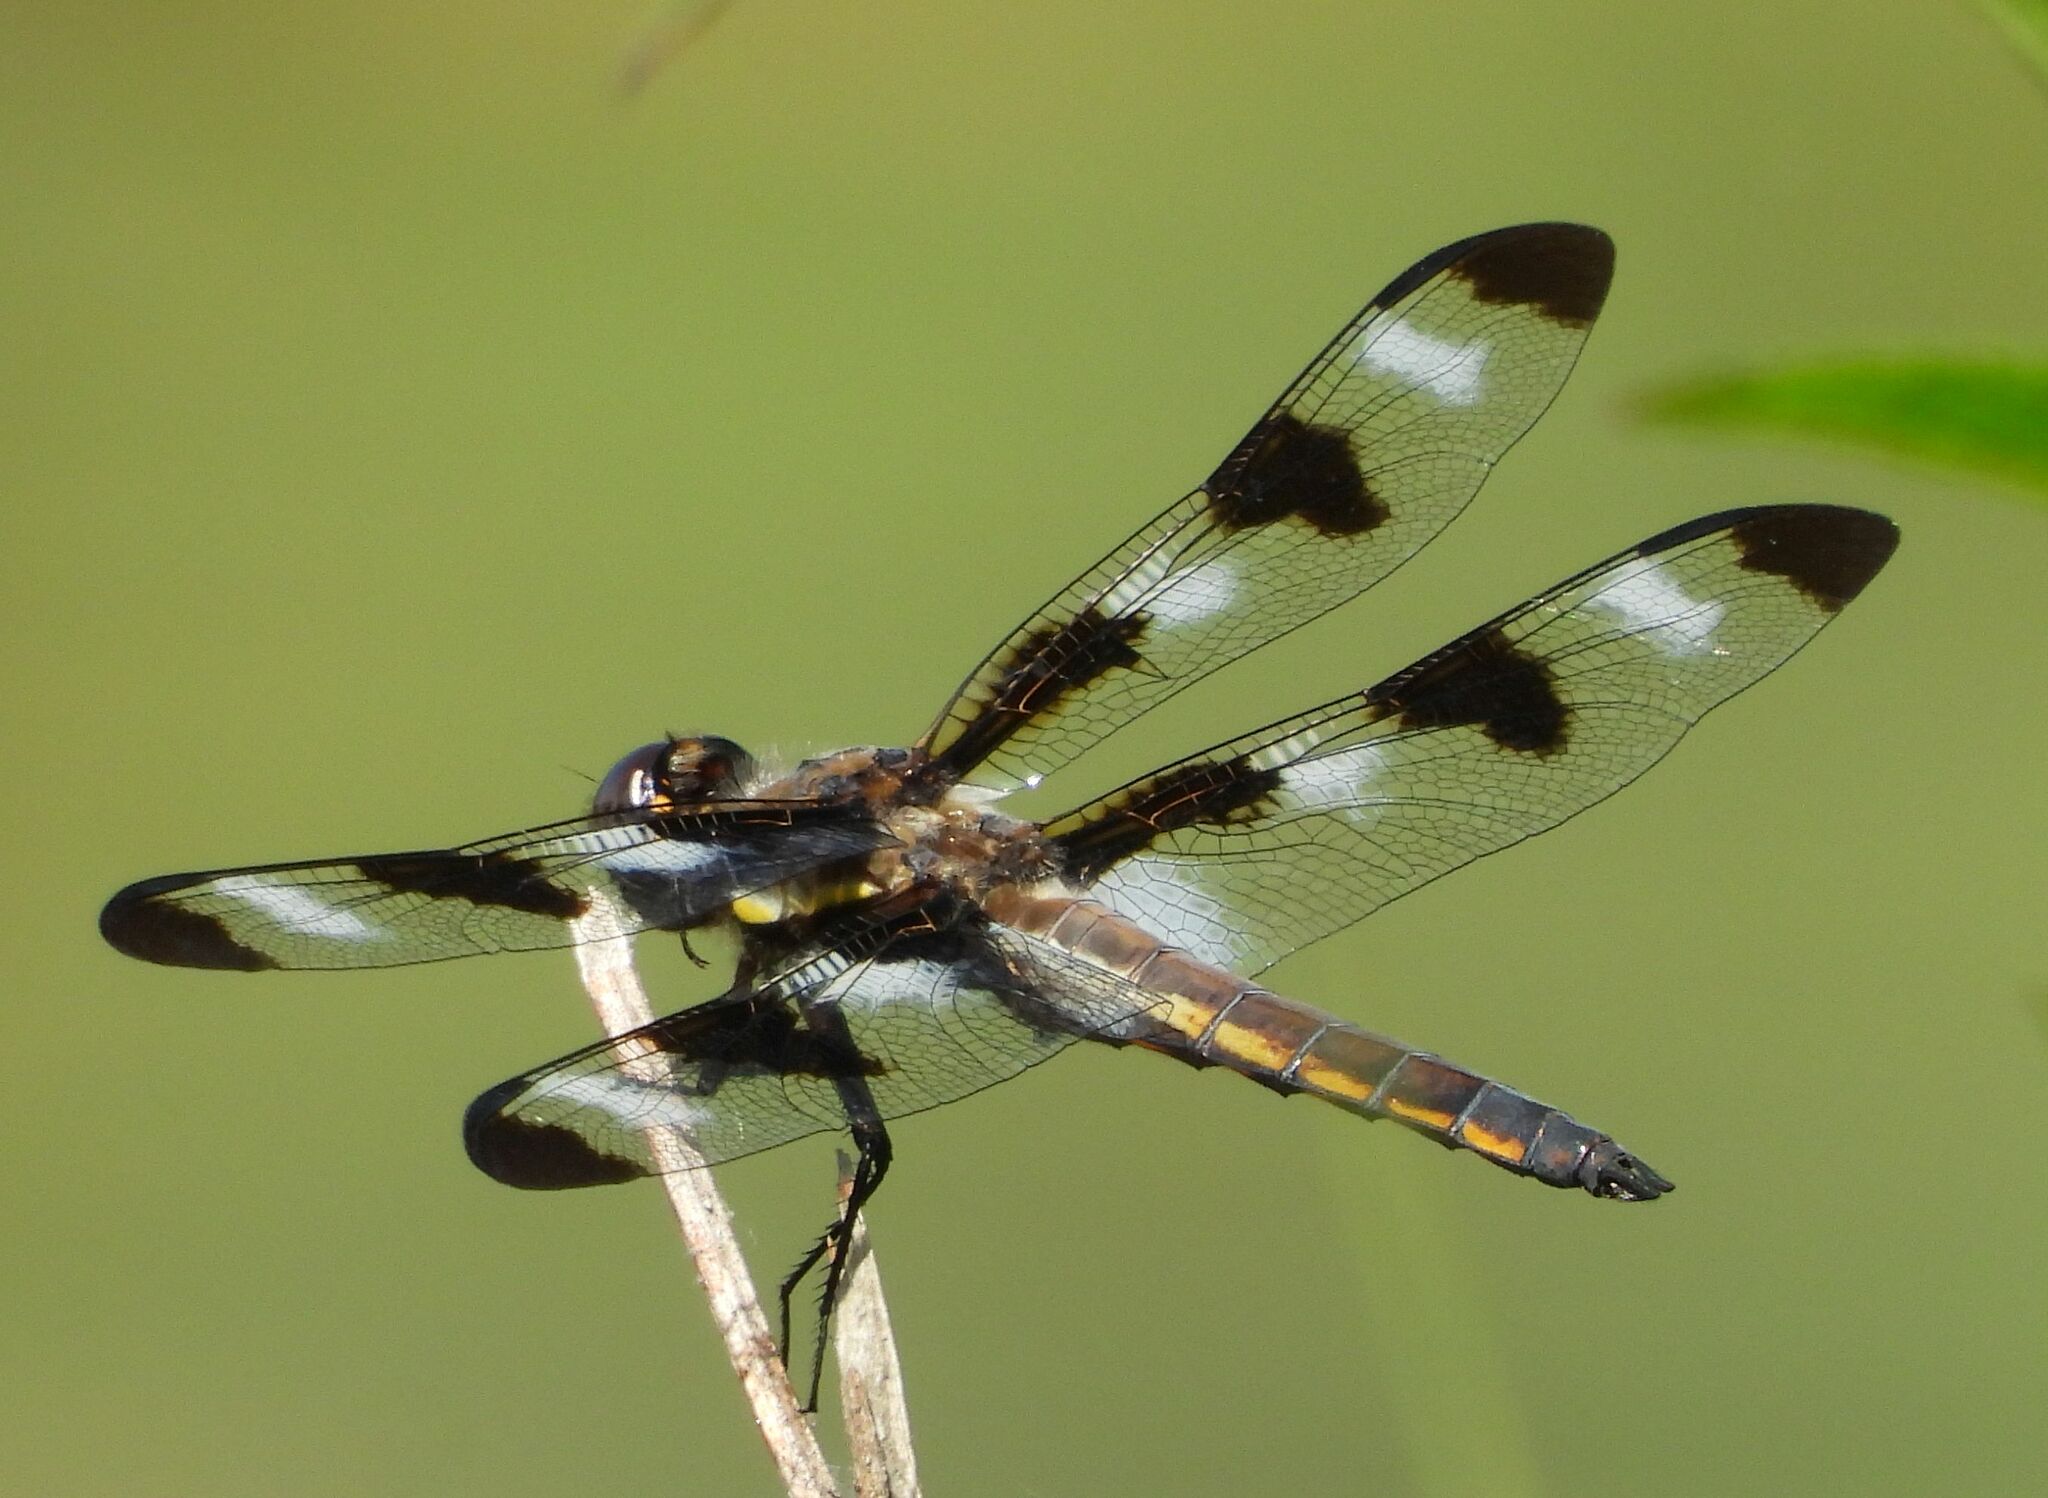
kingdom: Animalia
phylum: Arthropoda
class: Insecta
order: Odonata
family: Libellulidae
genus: Libellula
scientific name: Libellula pulchella
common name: Twelve-spotted skimmer
